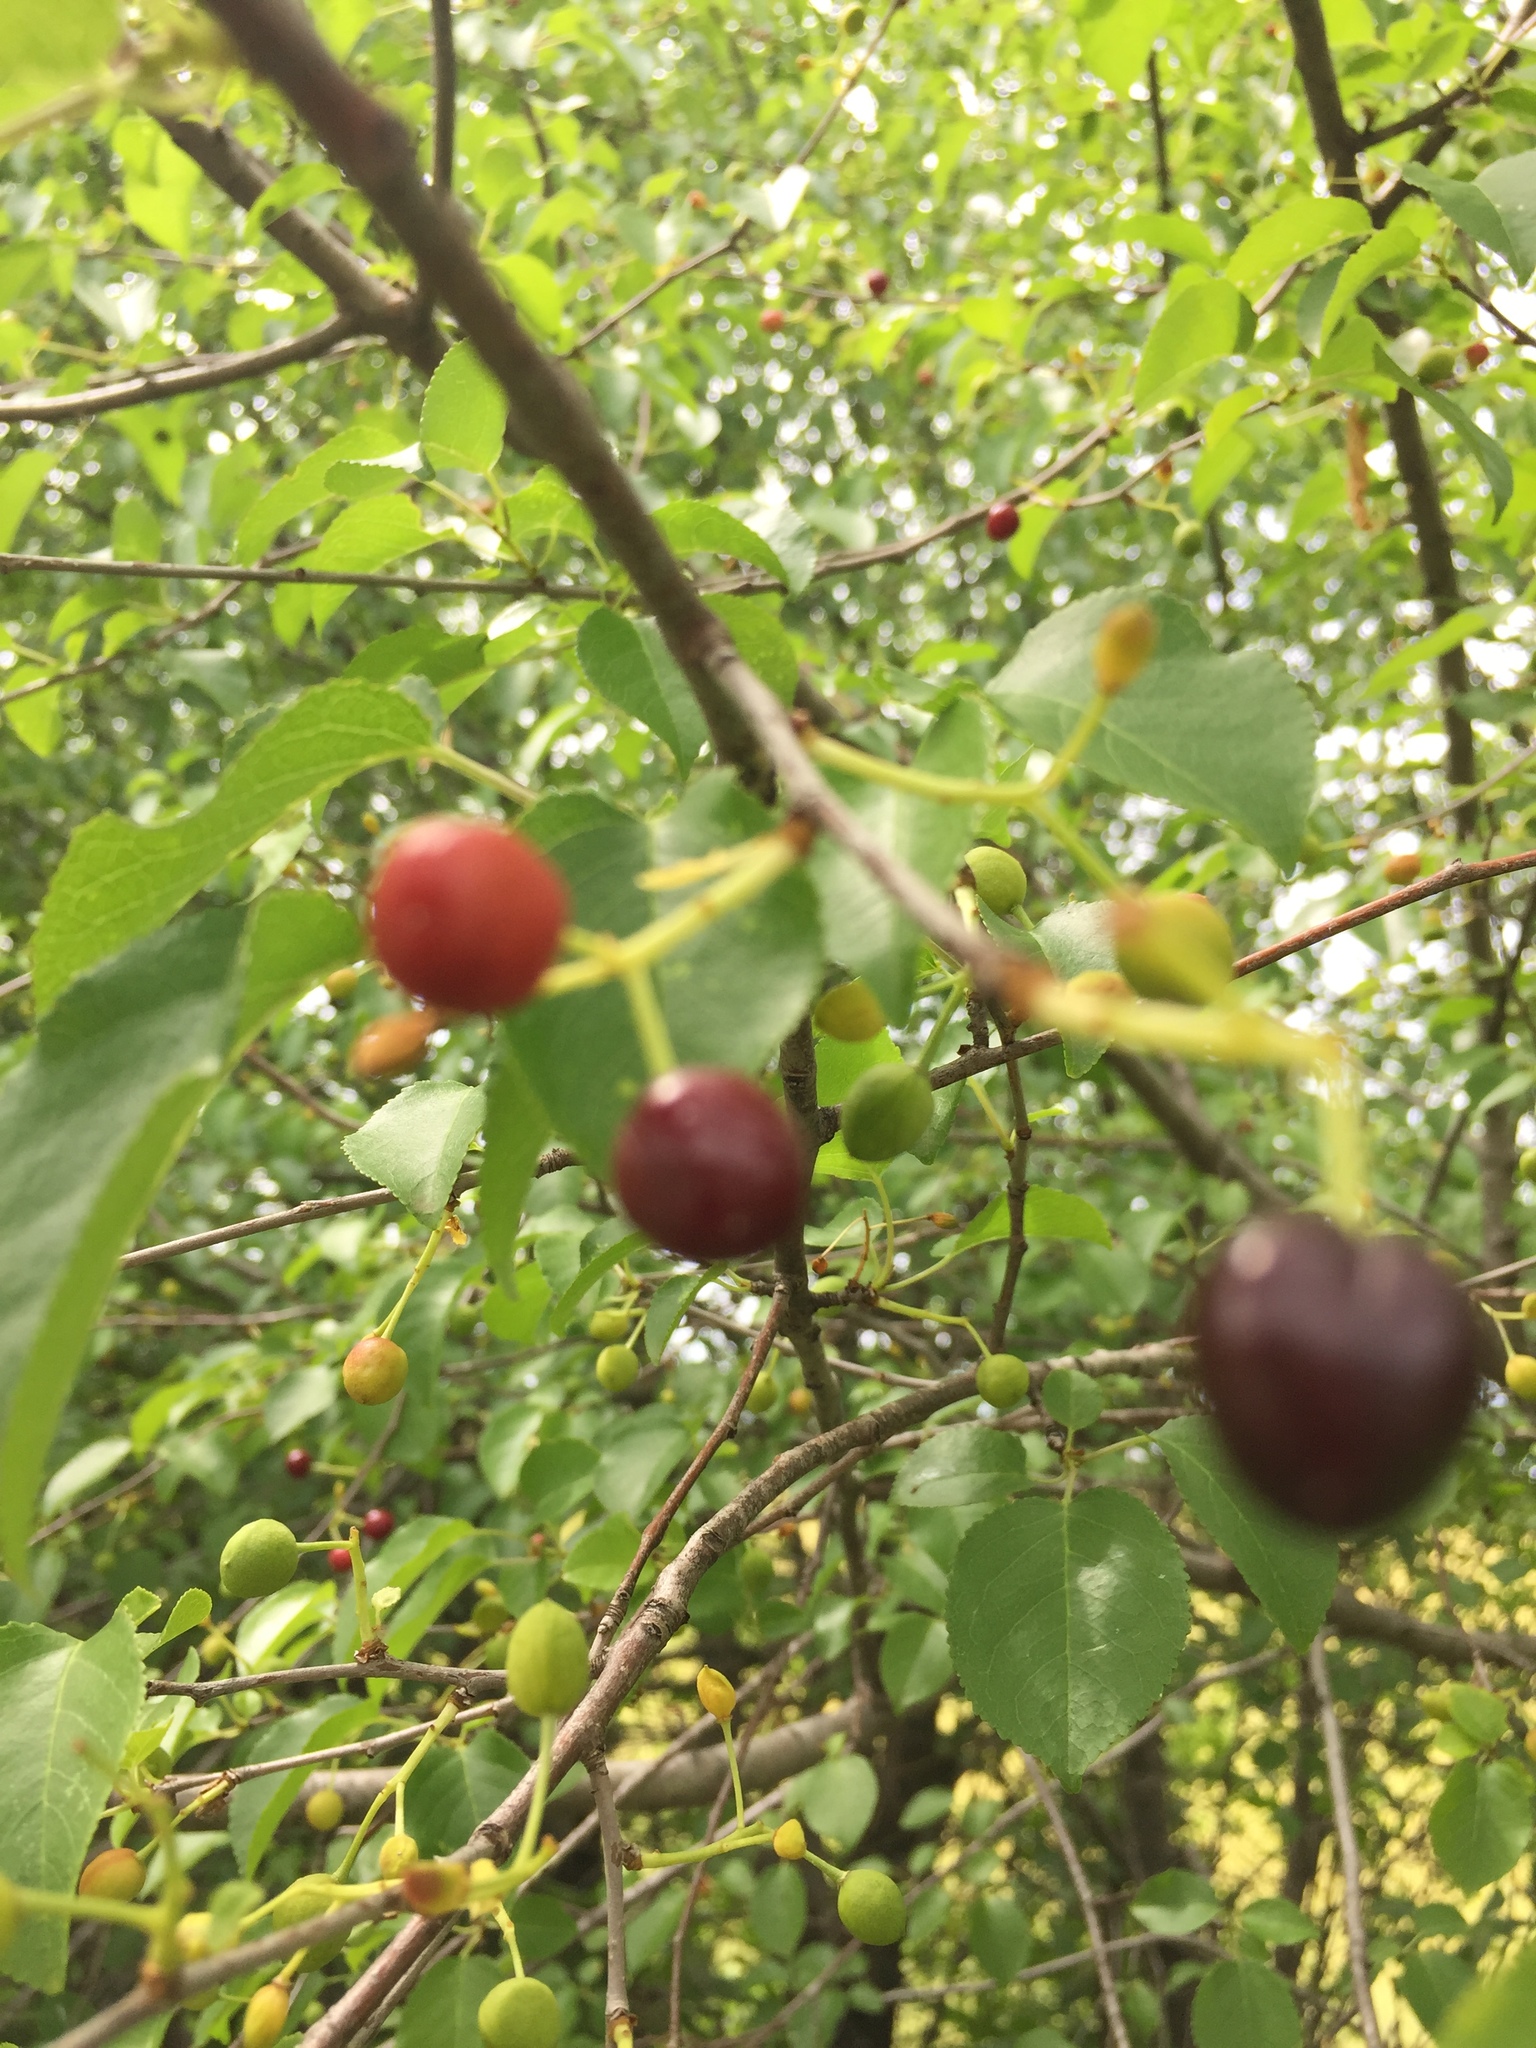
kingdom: Plantae
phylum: Tracheophyta
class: Magnoliopsida
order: Rosales
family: Rosaceae
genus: Prunus
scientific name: Prunus fruticosa
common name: European dwarf cherry
